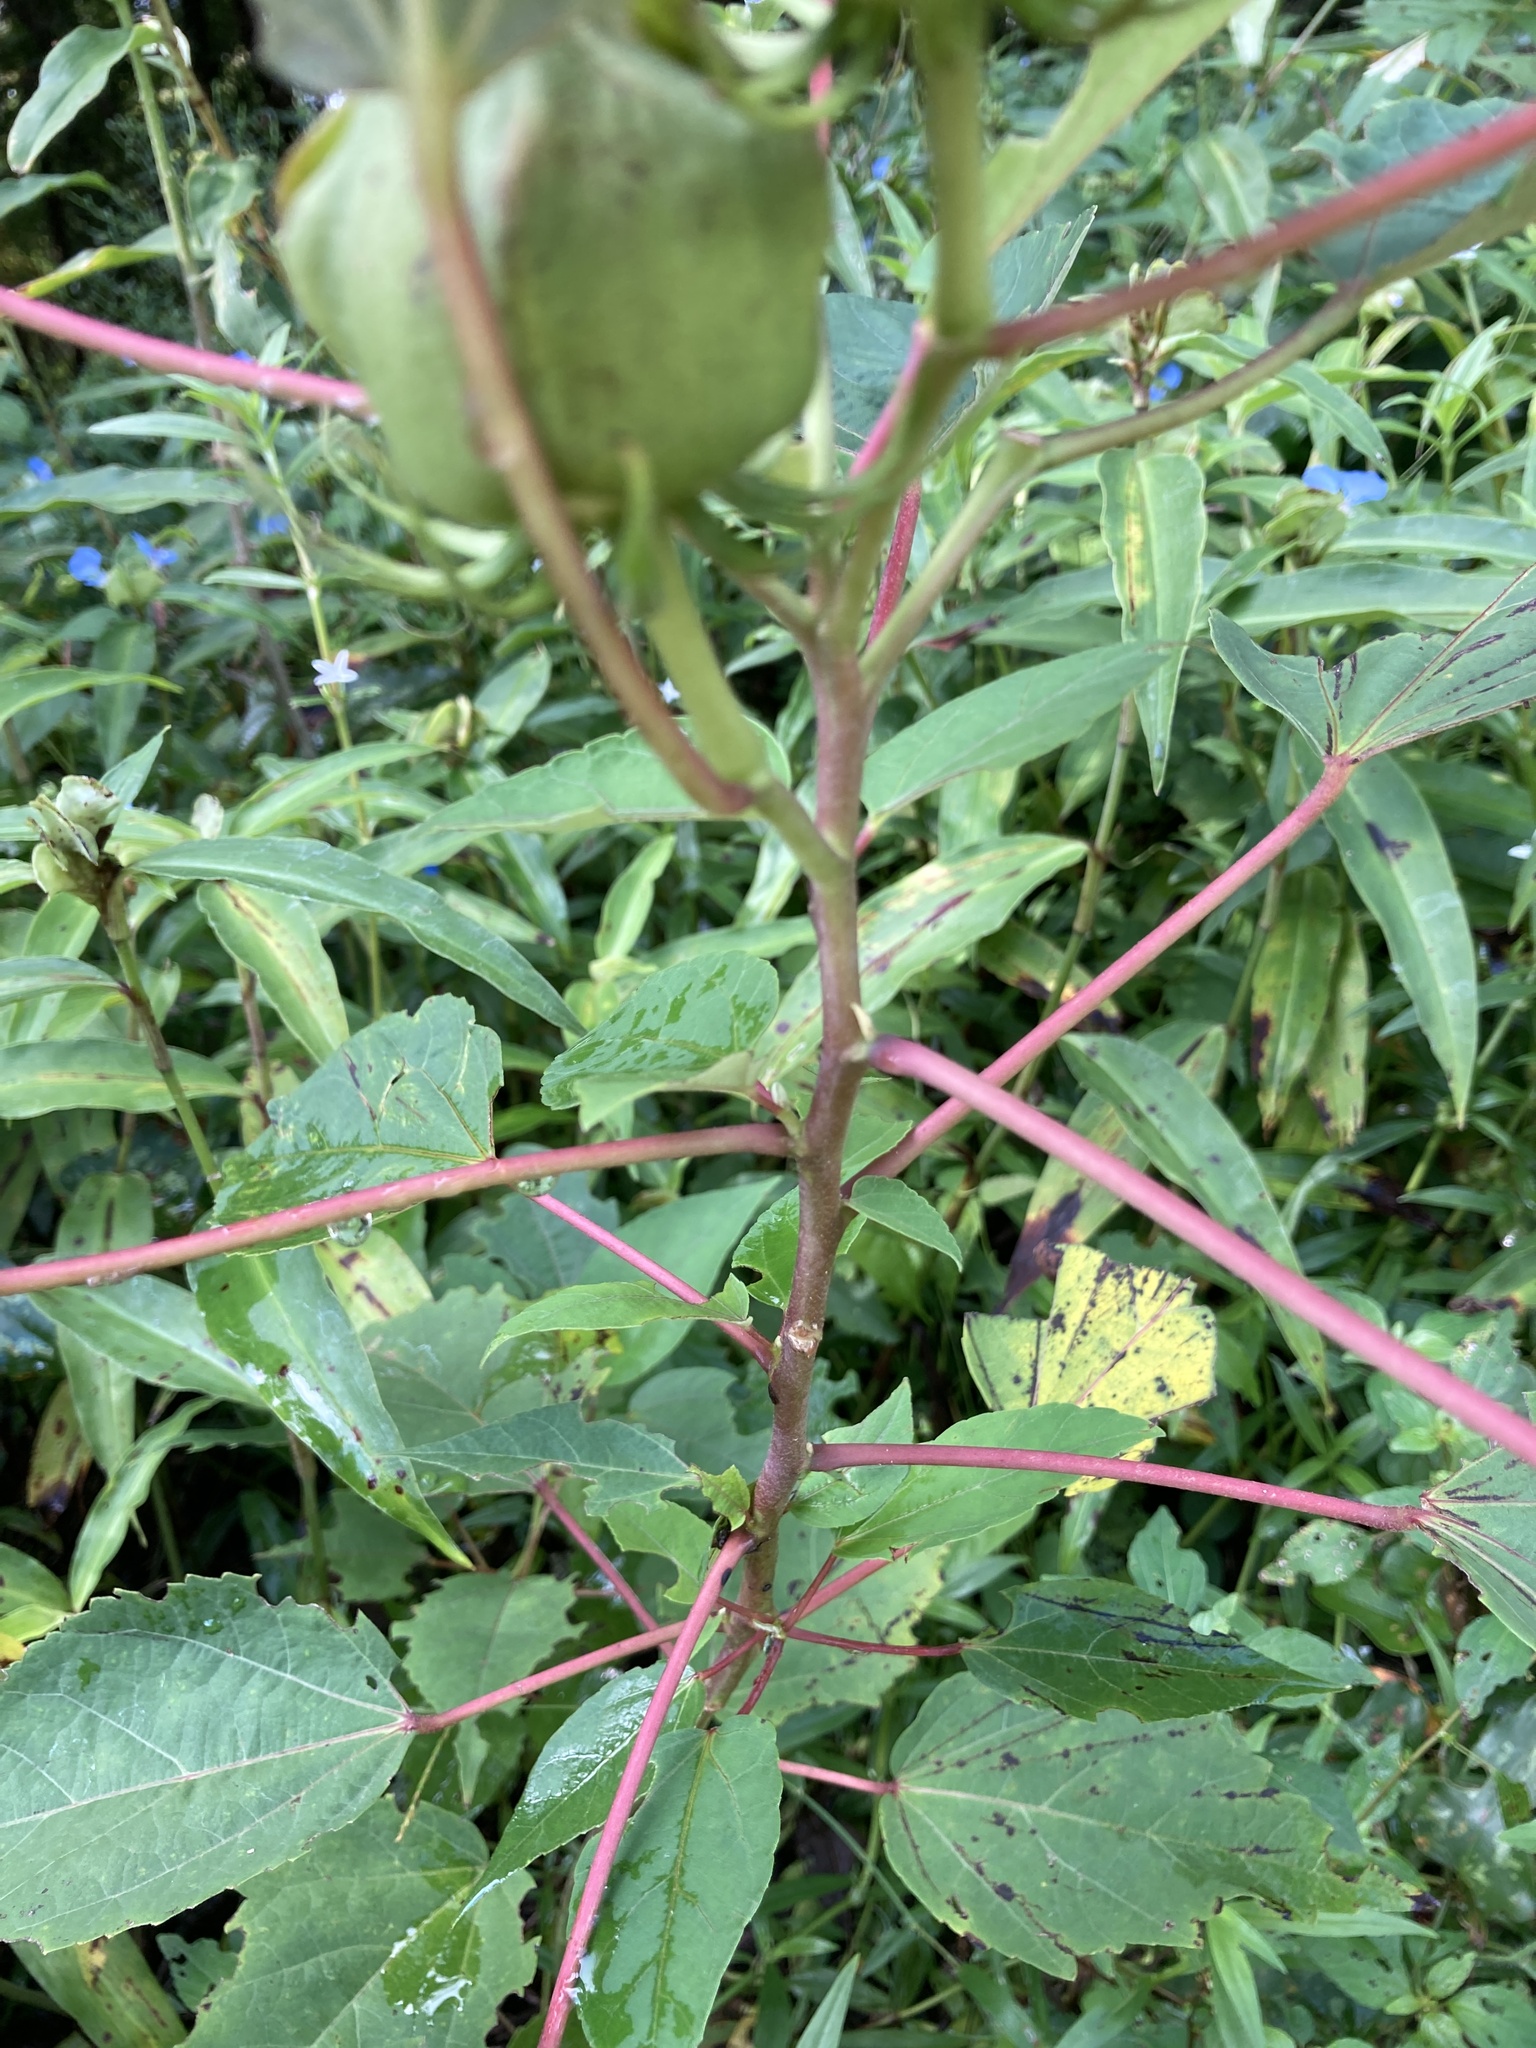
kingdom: Plantae
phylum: Tracheophyta
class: Magnoliopsida
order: Malvales
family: Malvaceae
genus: Hibiscus
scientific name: Hibiscus moscheutos
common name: Common rose-mallow
